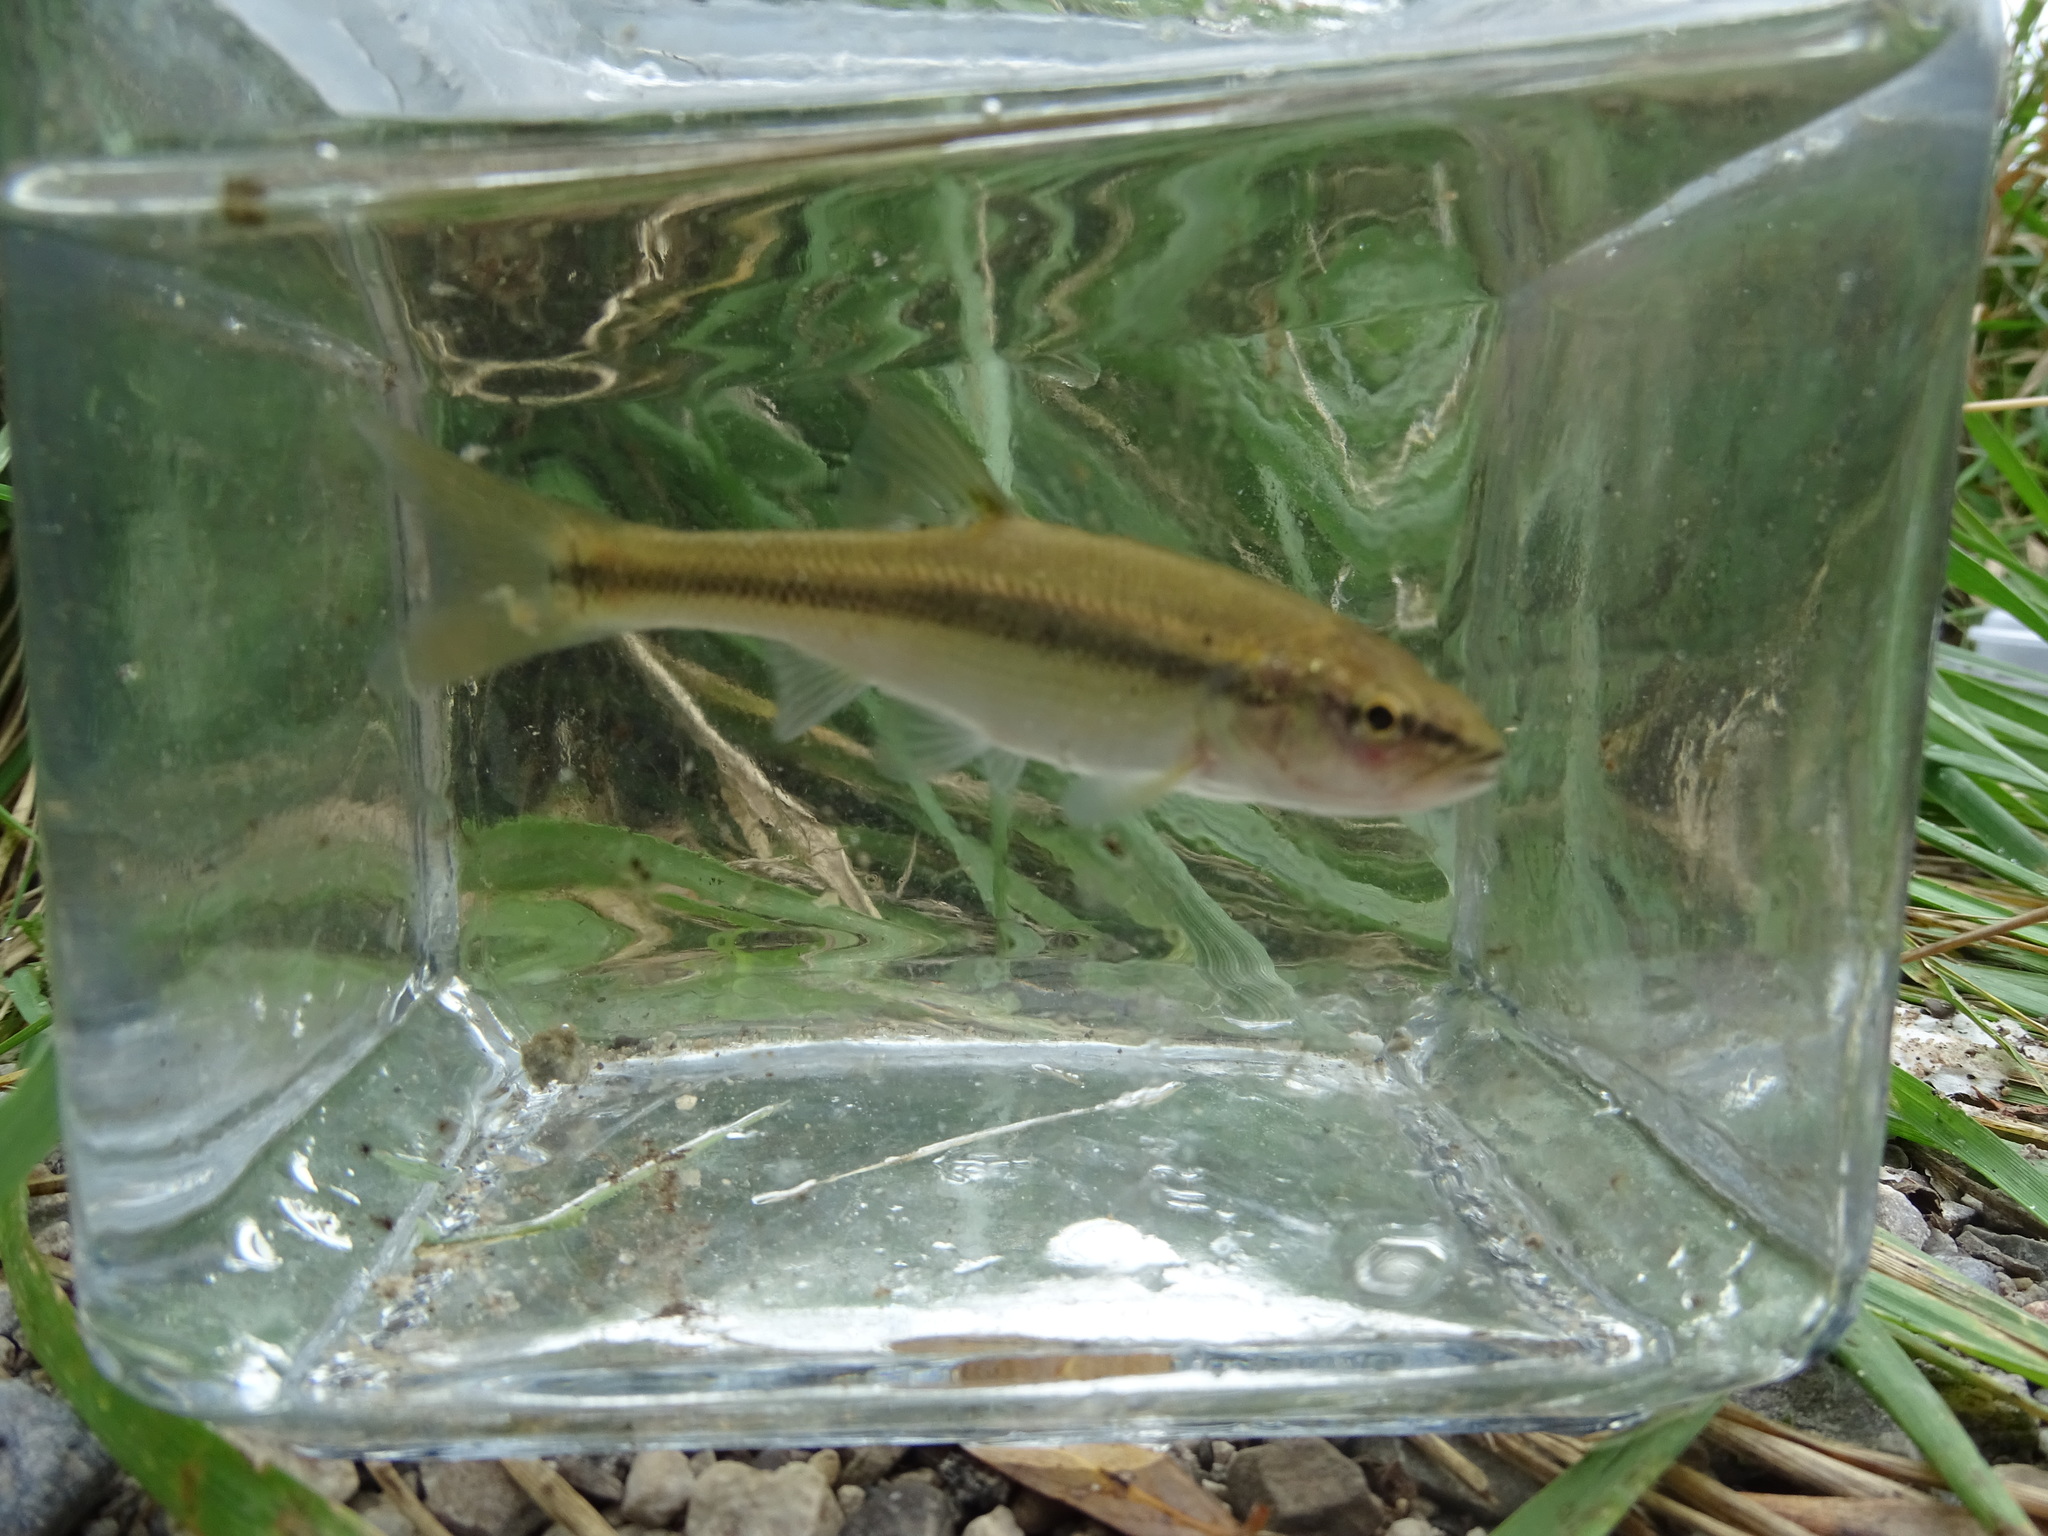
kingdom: Animalia
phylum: Chordata
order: Cypriniformes
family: Cyprinidae
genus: Semotilus
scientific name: Semotilus atromaculatus
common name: Creek chub
